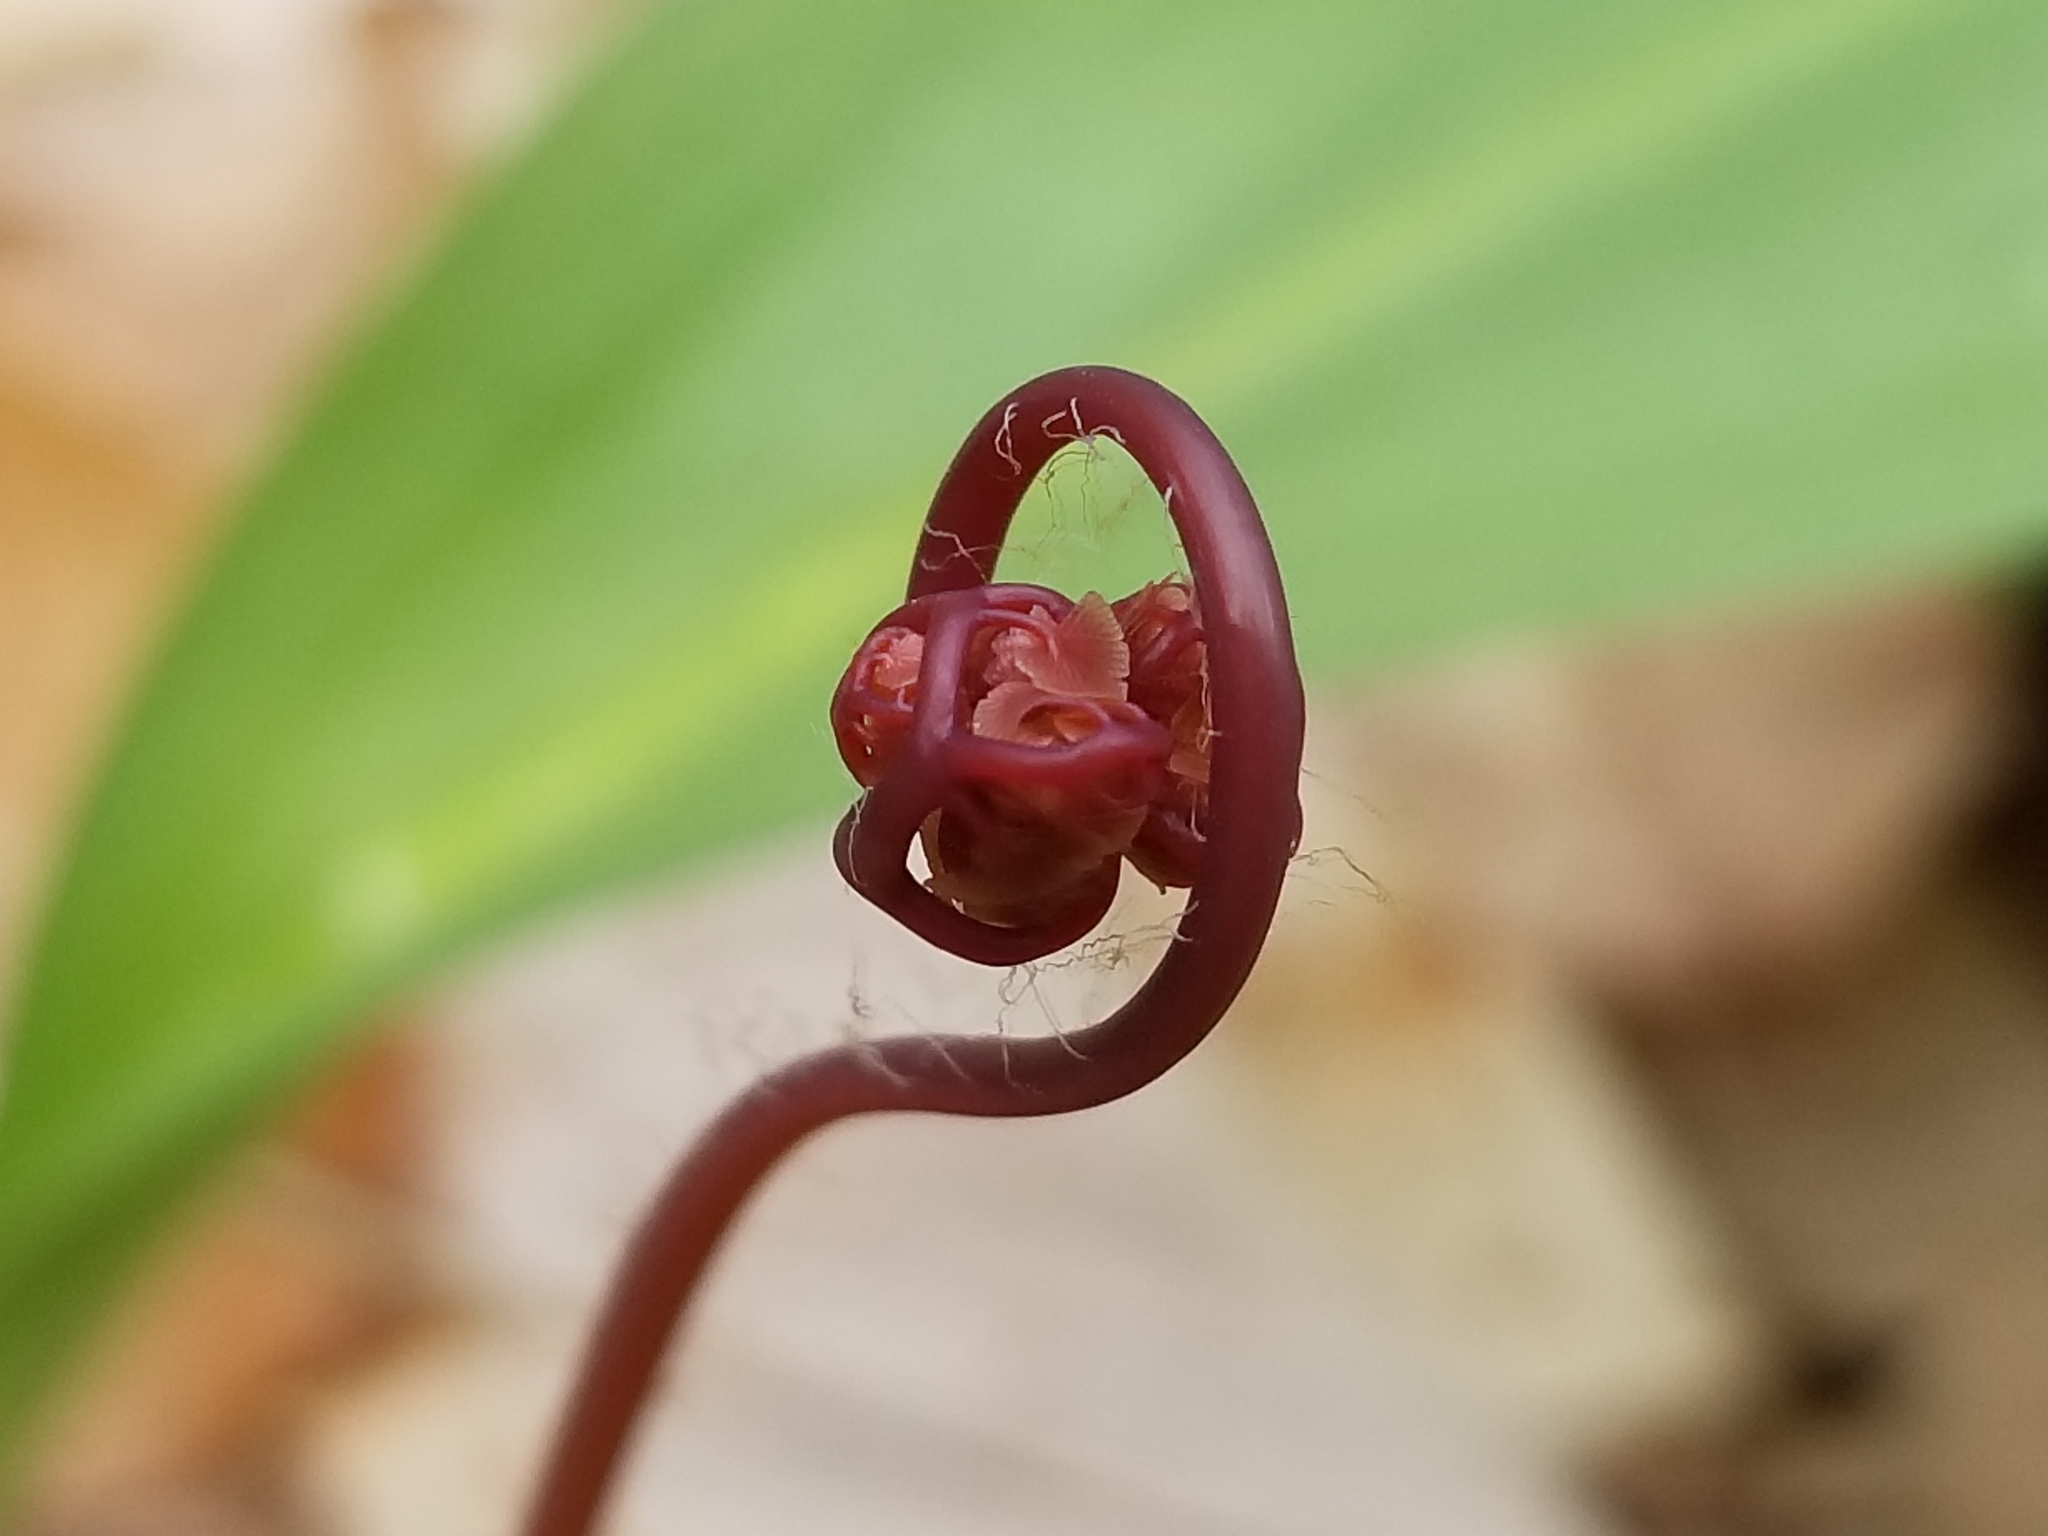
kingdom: Plantae
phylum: Tracheophyta
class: Polypodiopsida
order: Polypodiales
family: Pteridaceae
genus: Adiantum
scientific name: Adiantum pedatum
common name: Five-finger fern
